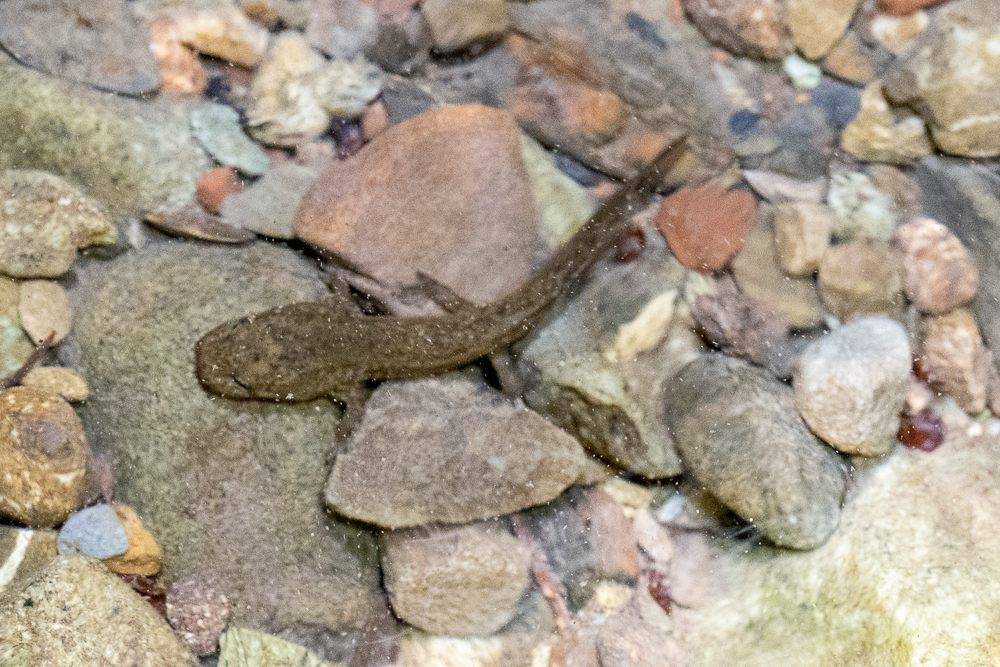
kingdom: Animalia
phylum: Chordata
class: Amphibia
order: Caudata
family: Ambystomatidae
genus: Dicamptodon
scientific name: Dicamptodon ensatus
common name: California giant salamander
